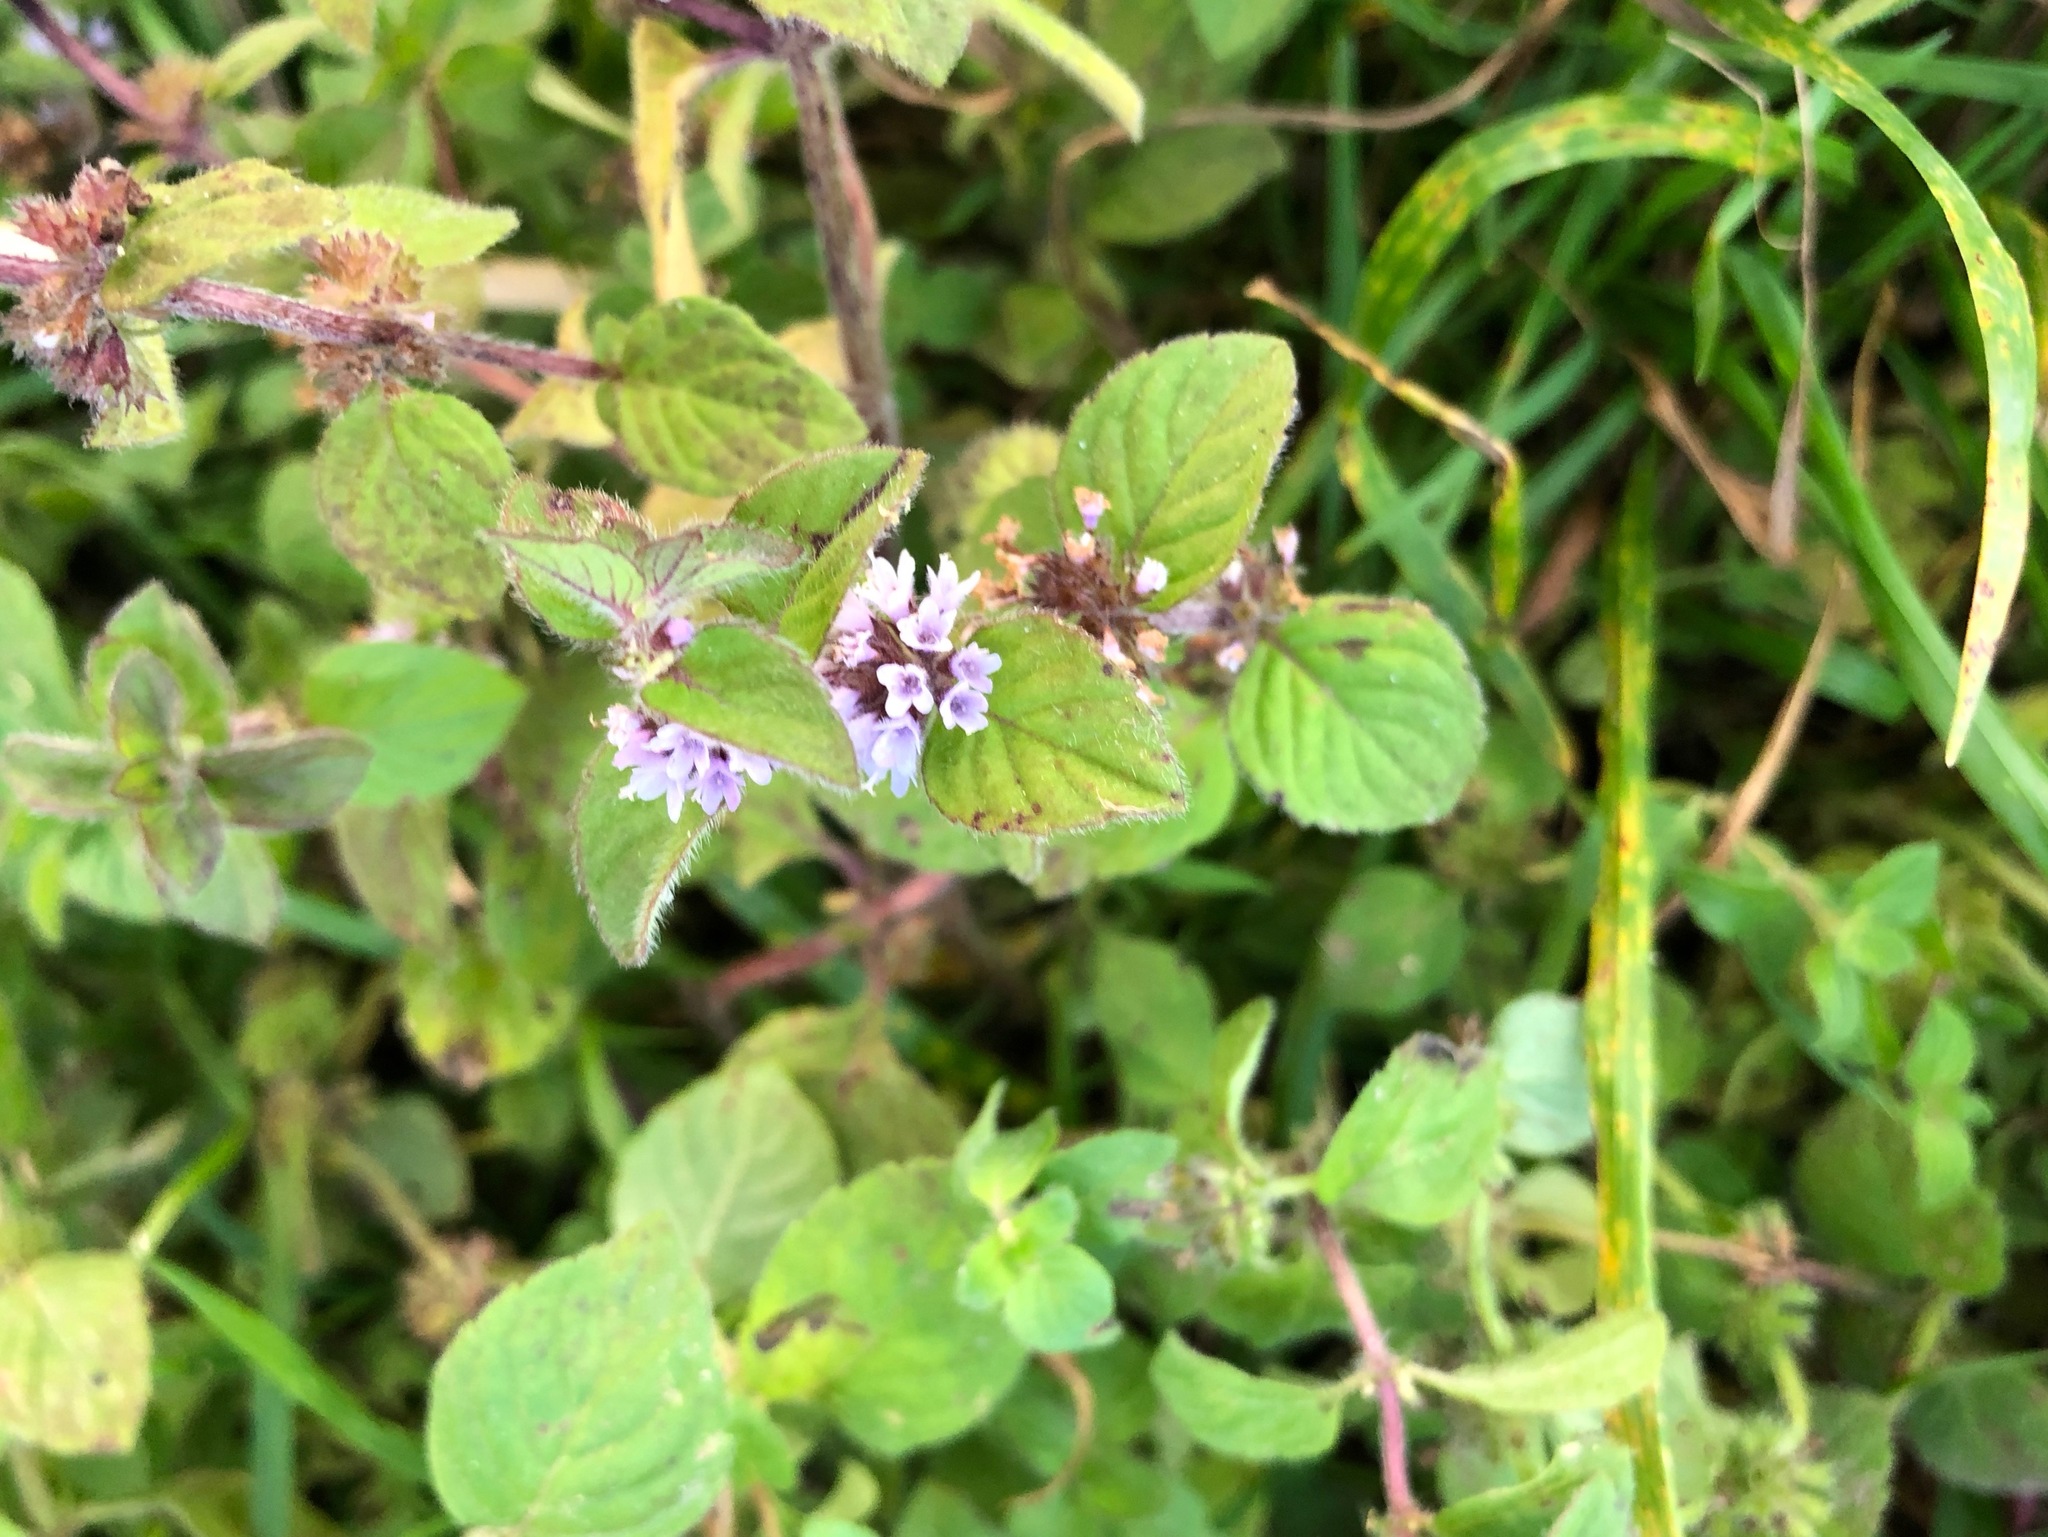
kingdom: Plantae
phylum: Tracheophyta
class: Magnoliopsida
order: Lamiales
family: Lamiaceae
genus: Mentha
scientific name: Mentha verticillata
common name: Mint
